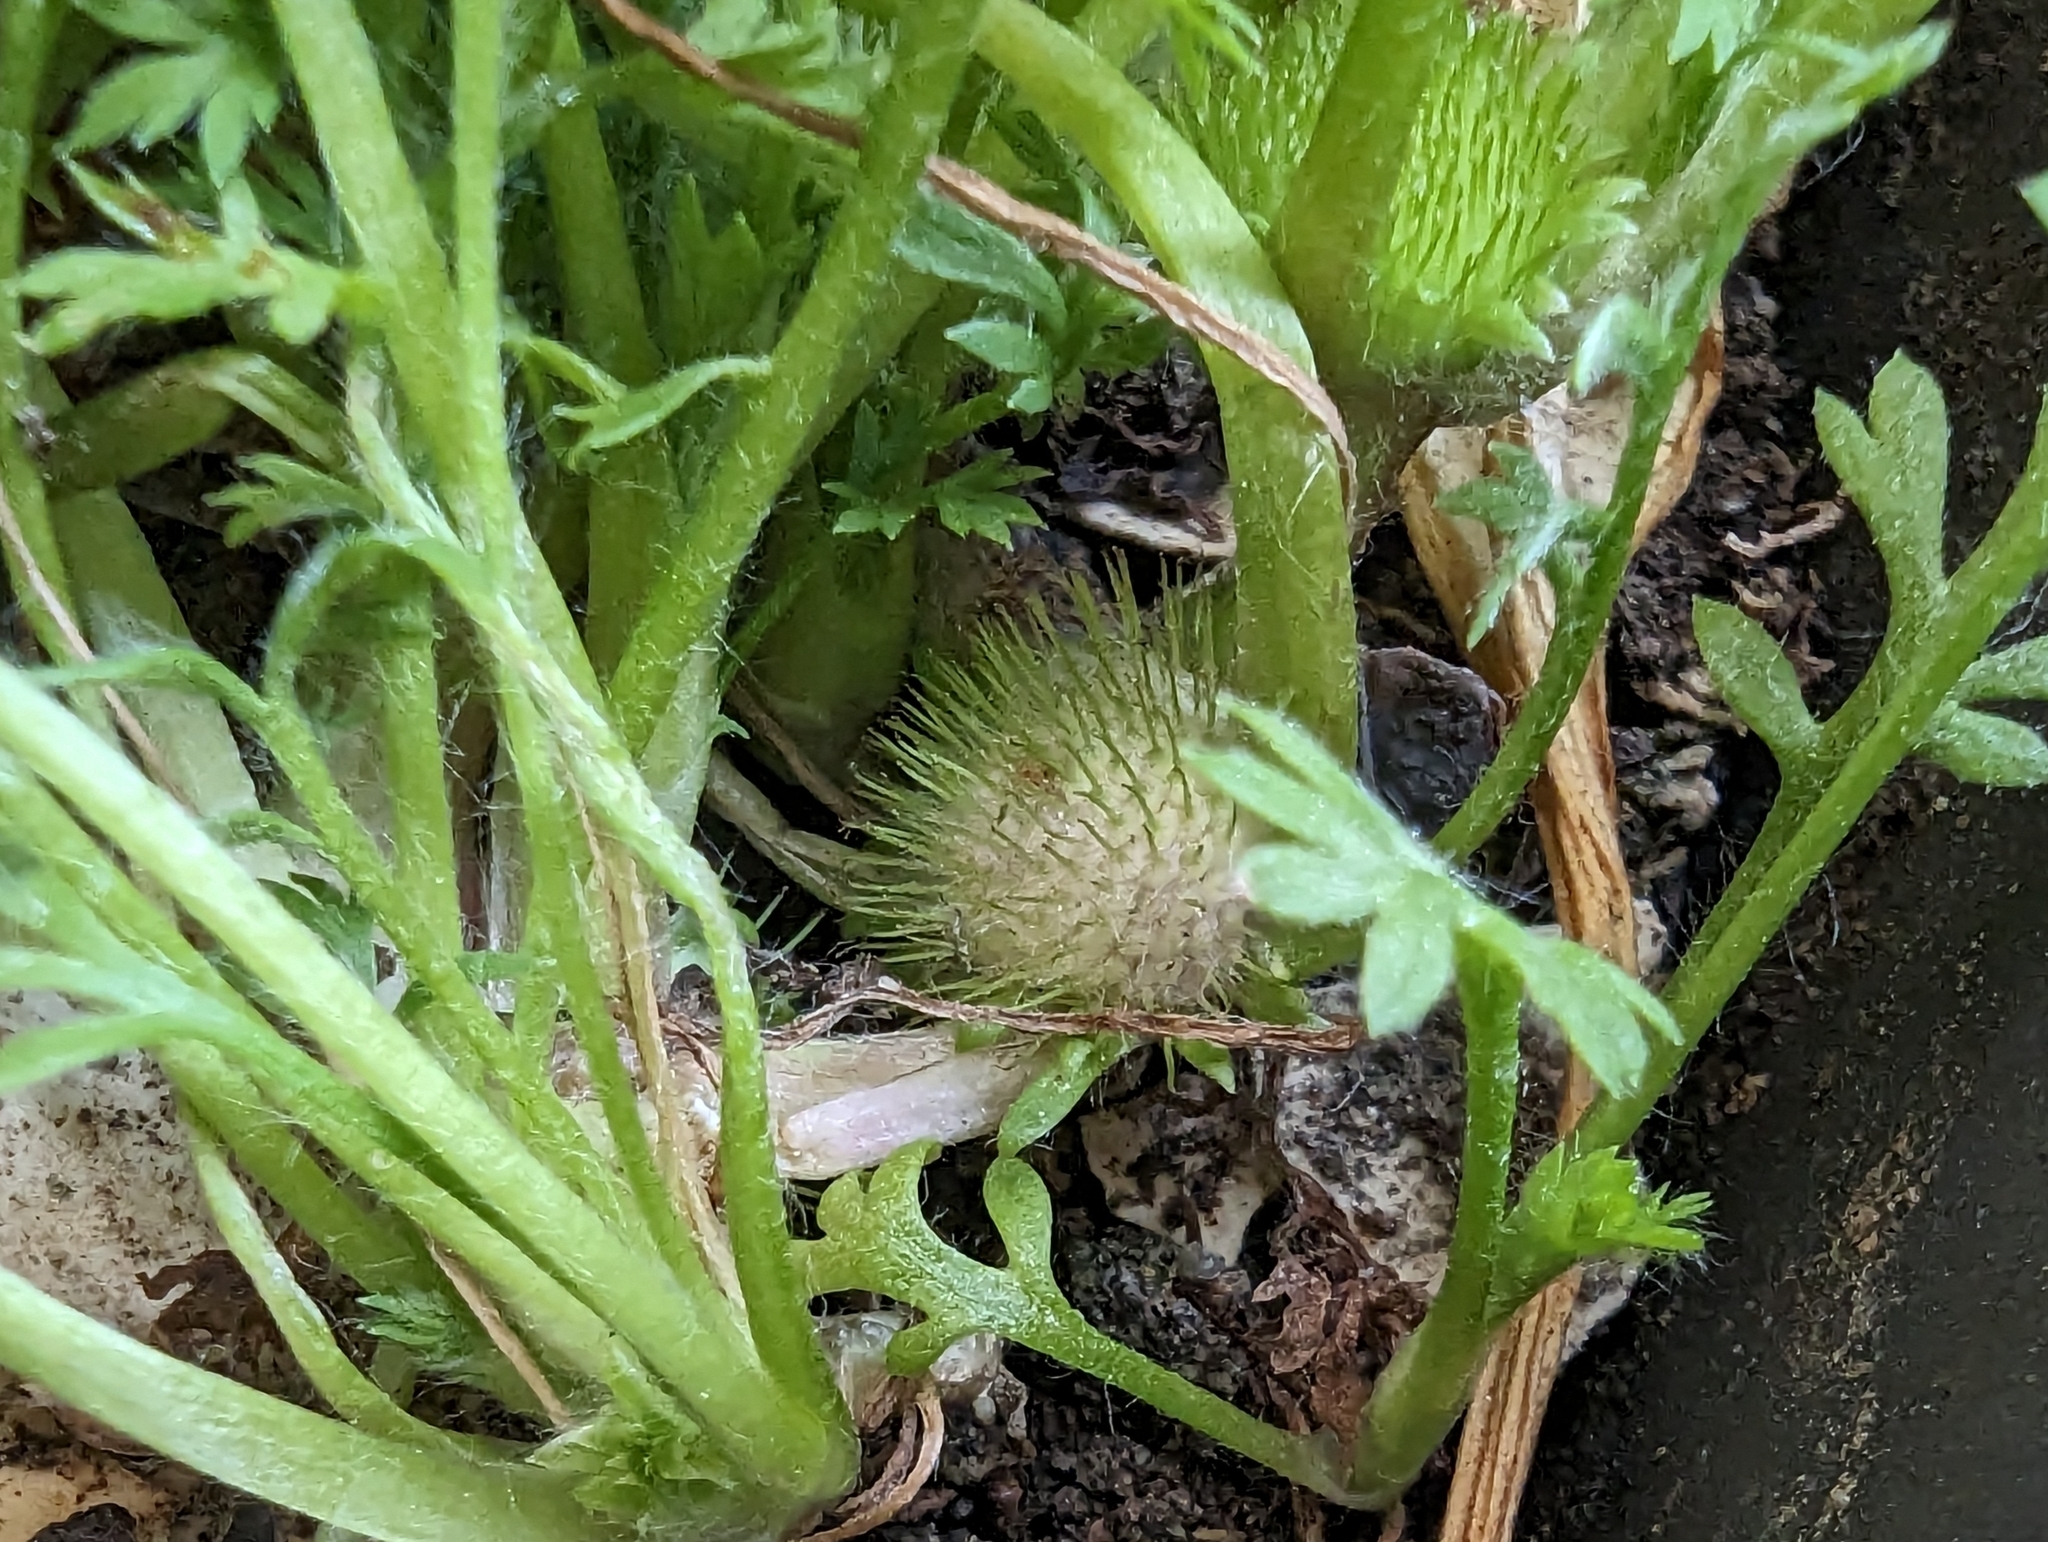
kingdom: Plantae
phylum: Tracheophyta
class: Magnoliopsida
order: Asterales
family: Asteraceae
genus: Soliva
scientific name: Soliva anthemifolia
